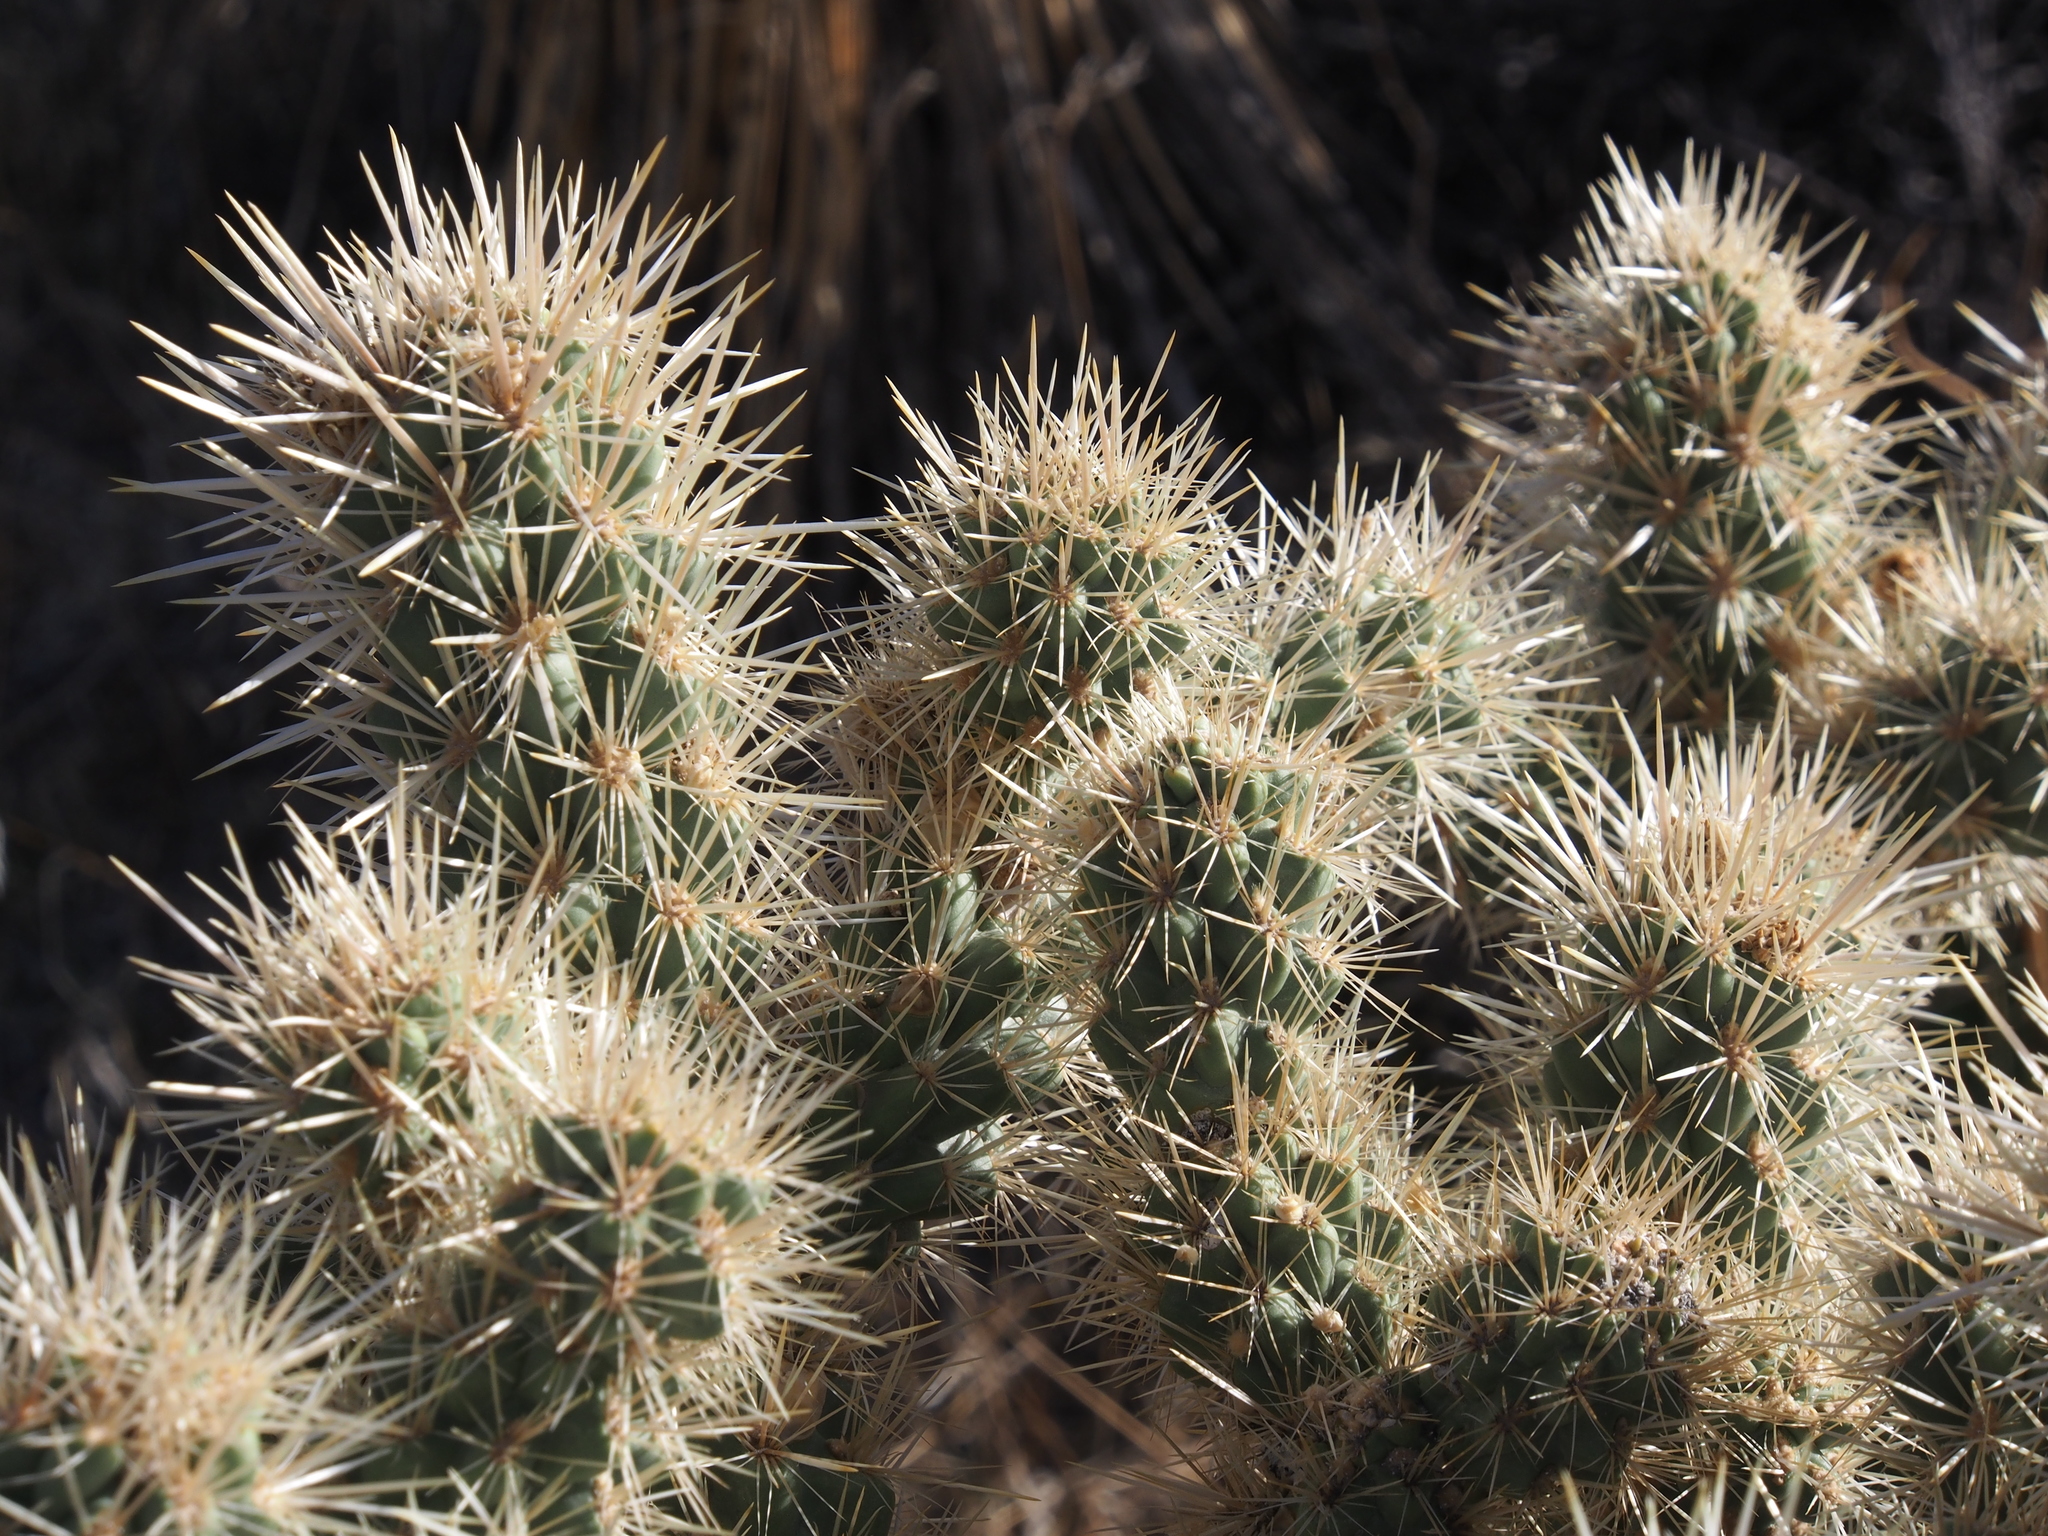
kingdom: Plantae
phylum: Tracheophyta
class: Magnoliopsida
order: Caryophyllales
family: Cactaceae
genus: Cylindropuntia
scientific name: Cylindropuntia echinocarpa
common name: Ground cholla
